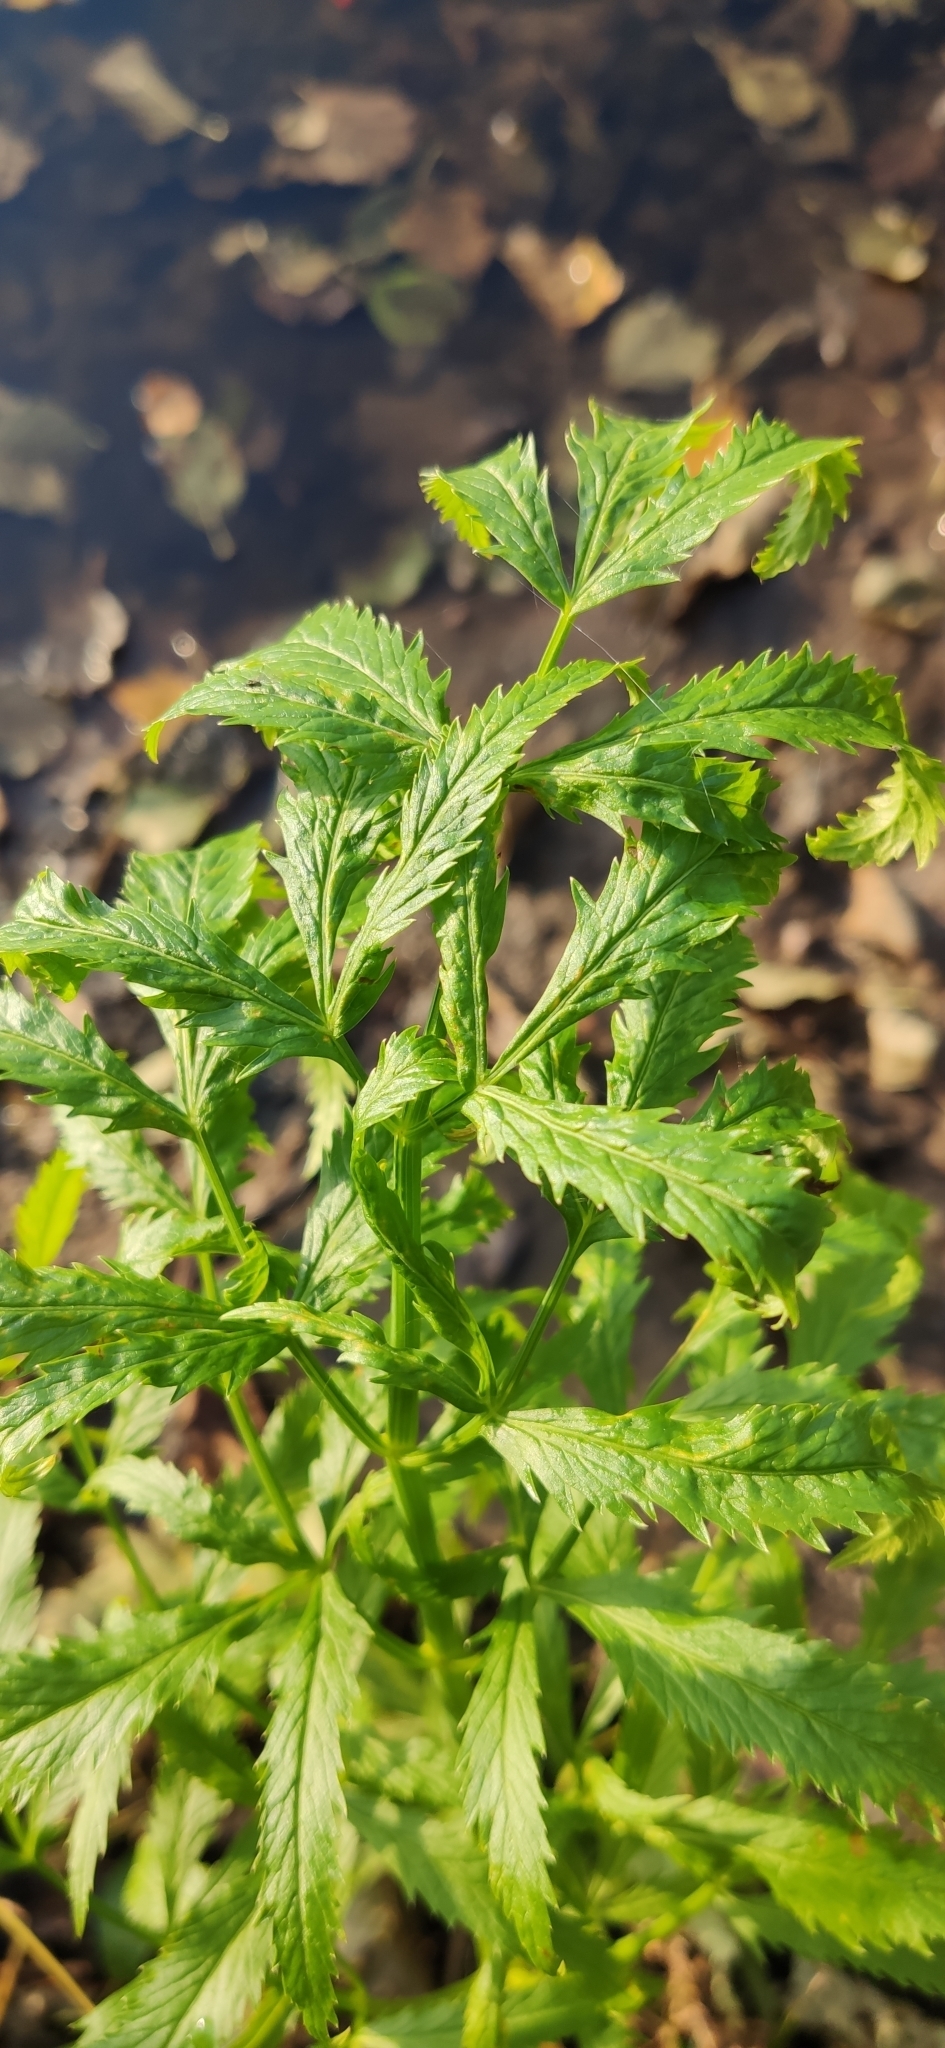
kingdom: Plantae
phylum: Tracheophyta
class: Magnoliopsida
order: Apiales
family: Apiaceae
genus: Cicuta
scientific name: Cicuta virosa
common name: Cowbane
